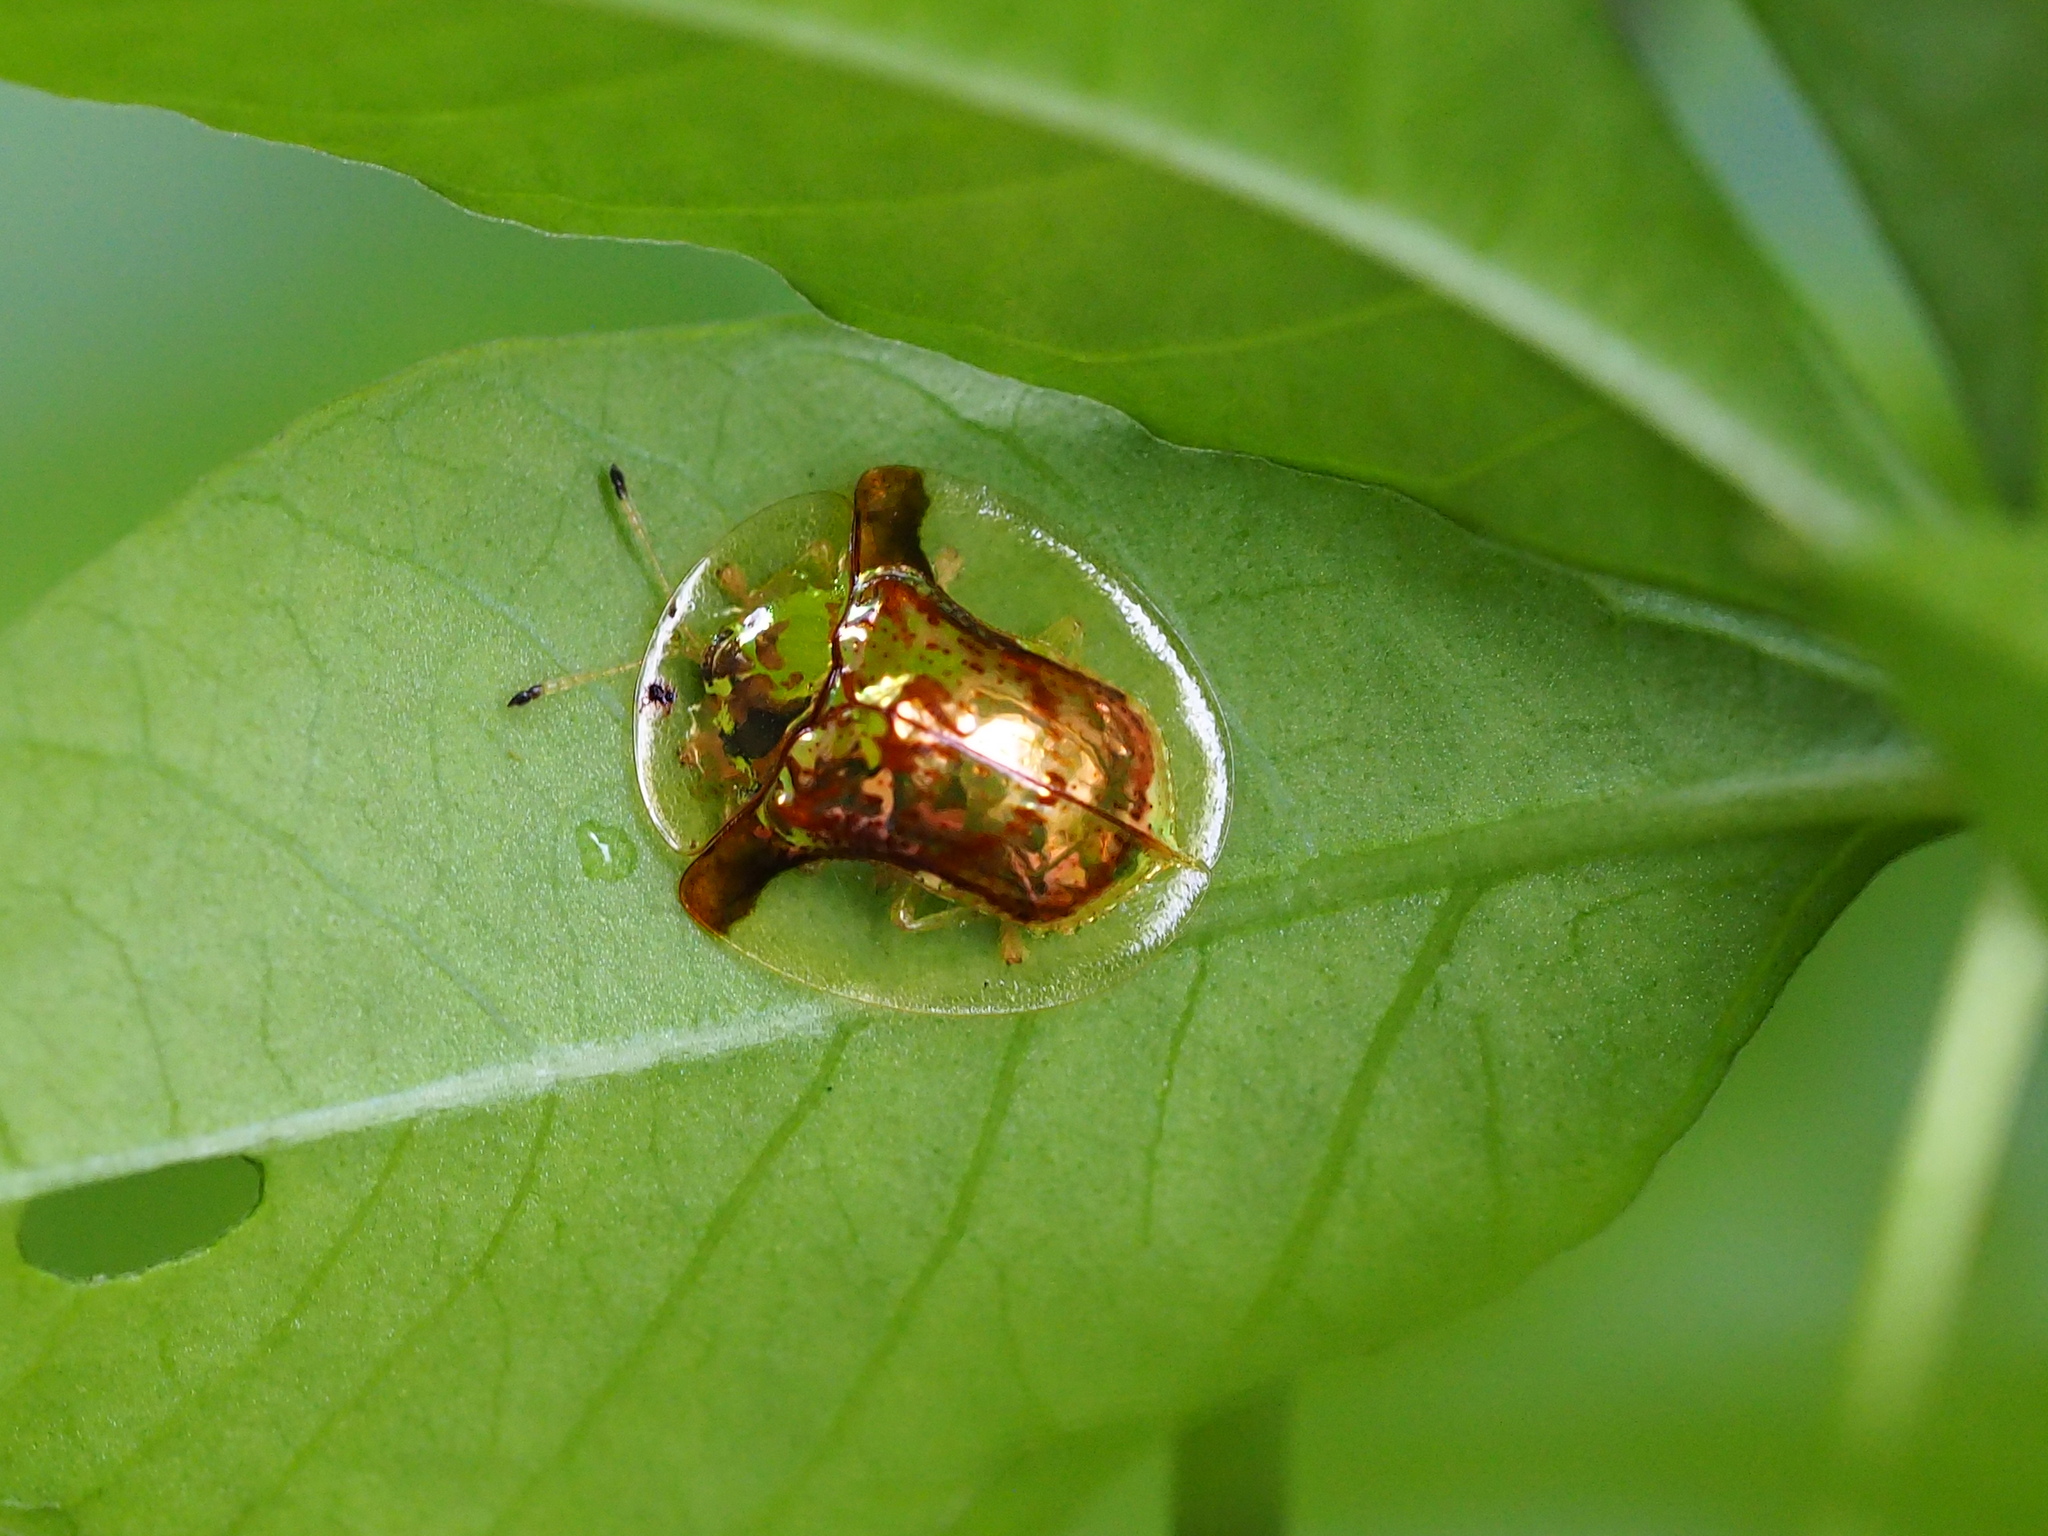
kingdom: Animalia
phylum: Arthropoda
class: Insecta
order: Coleoptera
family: Chrysomelidae
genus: Aspidimorpha
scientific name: Aspidimorpha furcata
